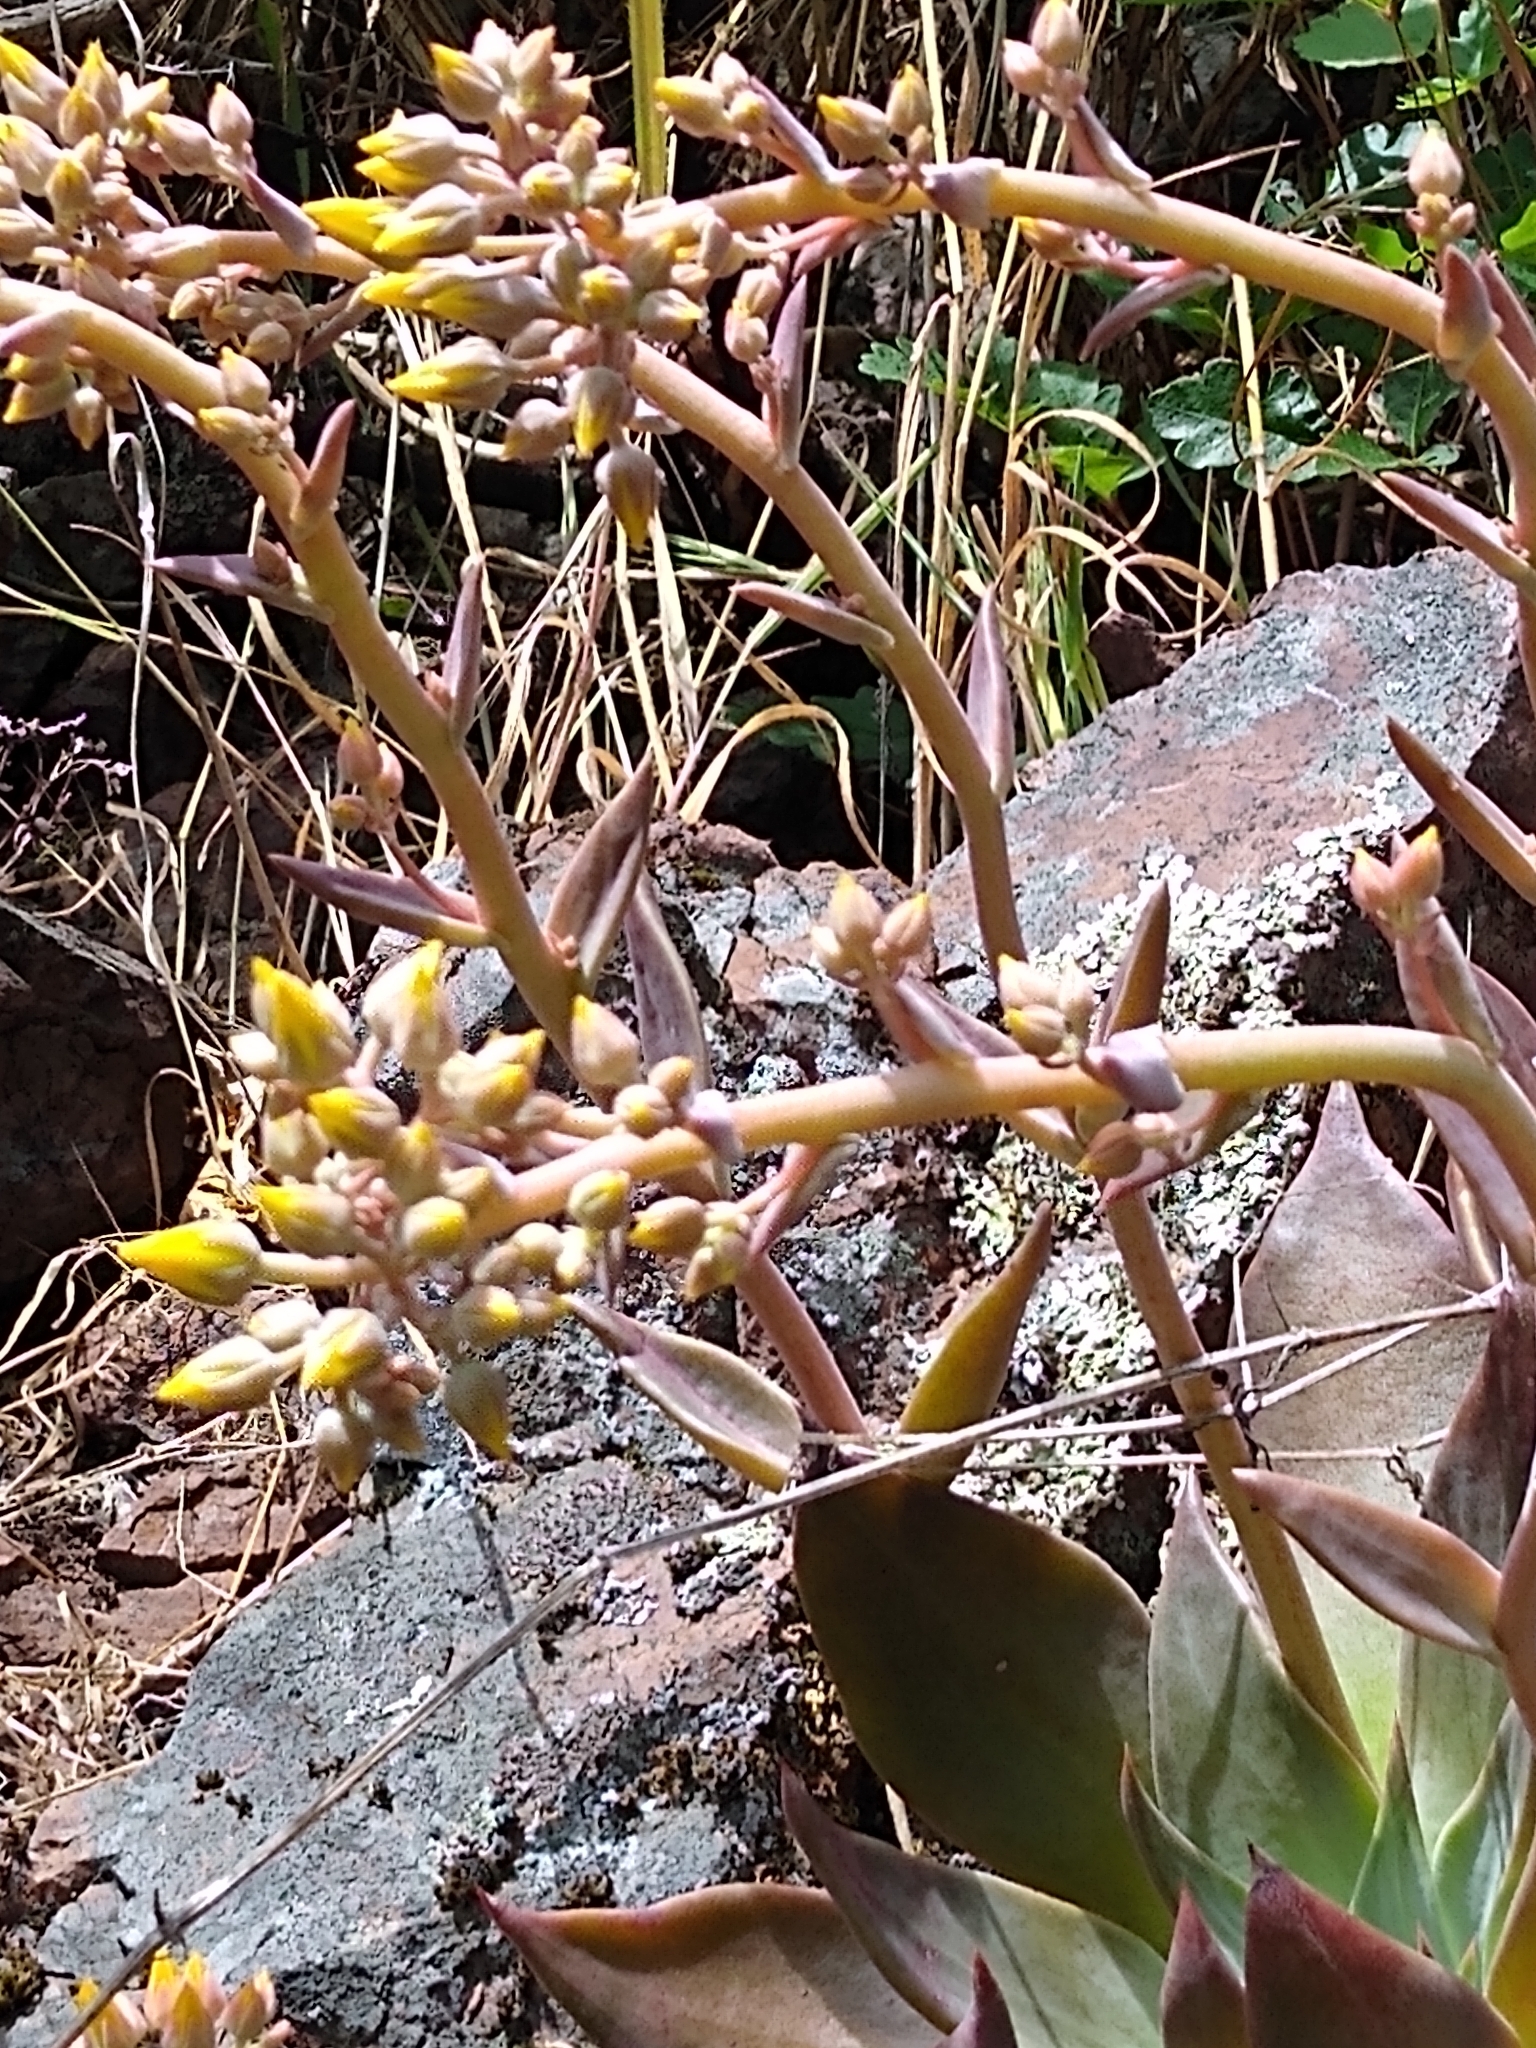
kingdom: Plantae
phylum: Tracheophyta
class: Magnoliopsida
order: Saxifragales
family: Crassulaceae
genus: Dudleya
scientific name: Dudleya cymosa
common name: Canyon dudleya
